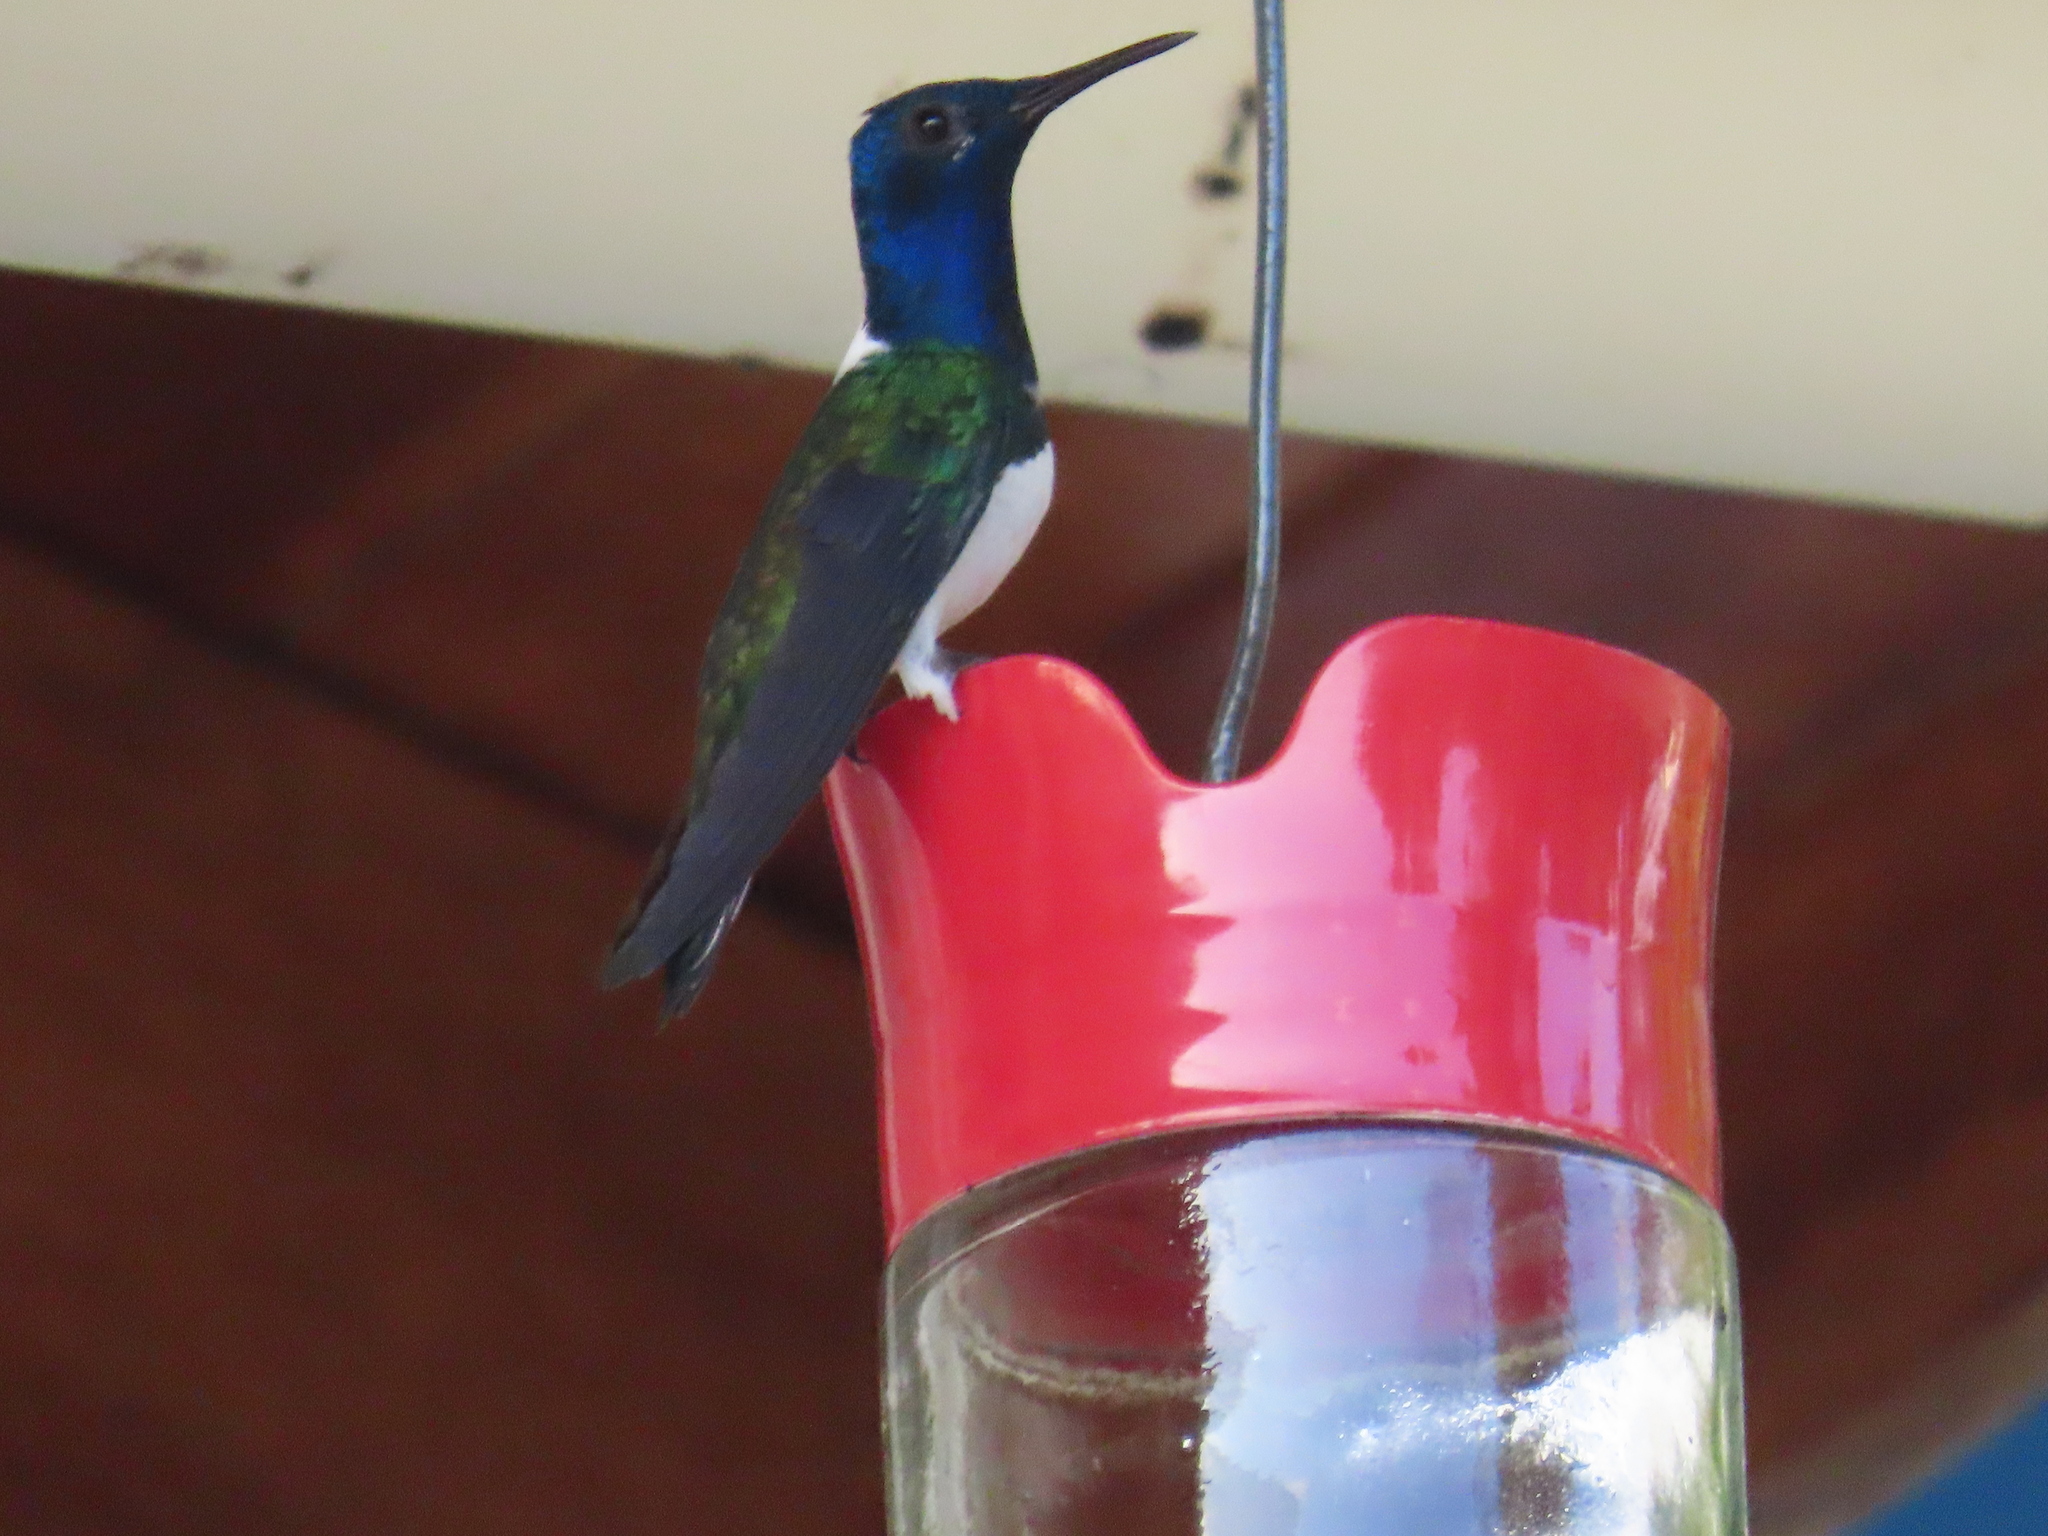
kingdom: Animalia
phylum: Chordata
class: Aves
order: Apodiformes
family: Trochilidae
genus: Florisuga
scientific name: Florisuga mellivora
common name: White-necked jacobin
